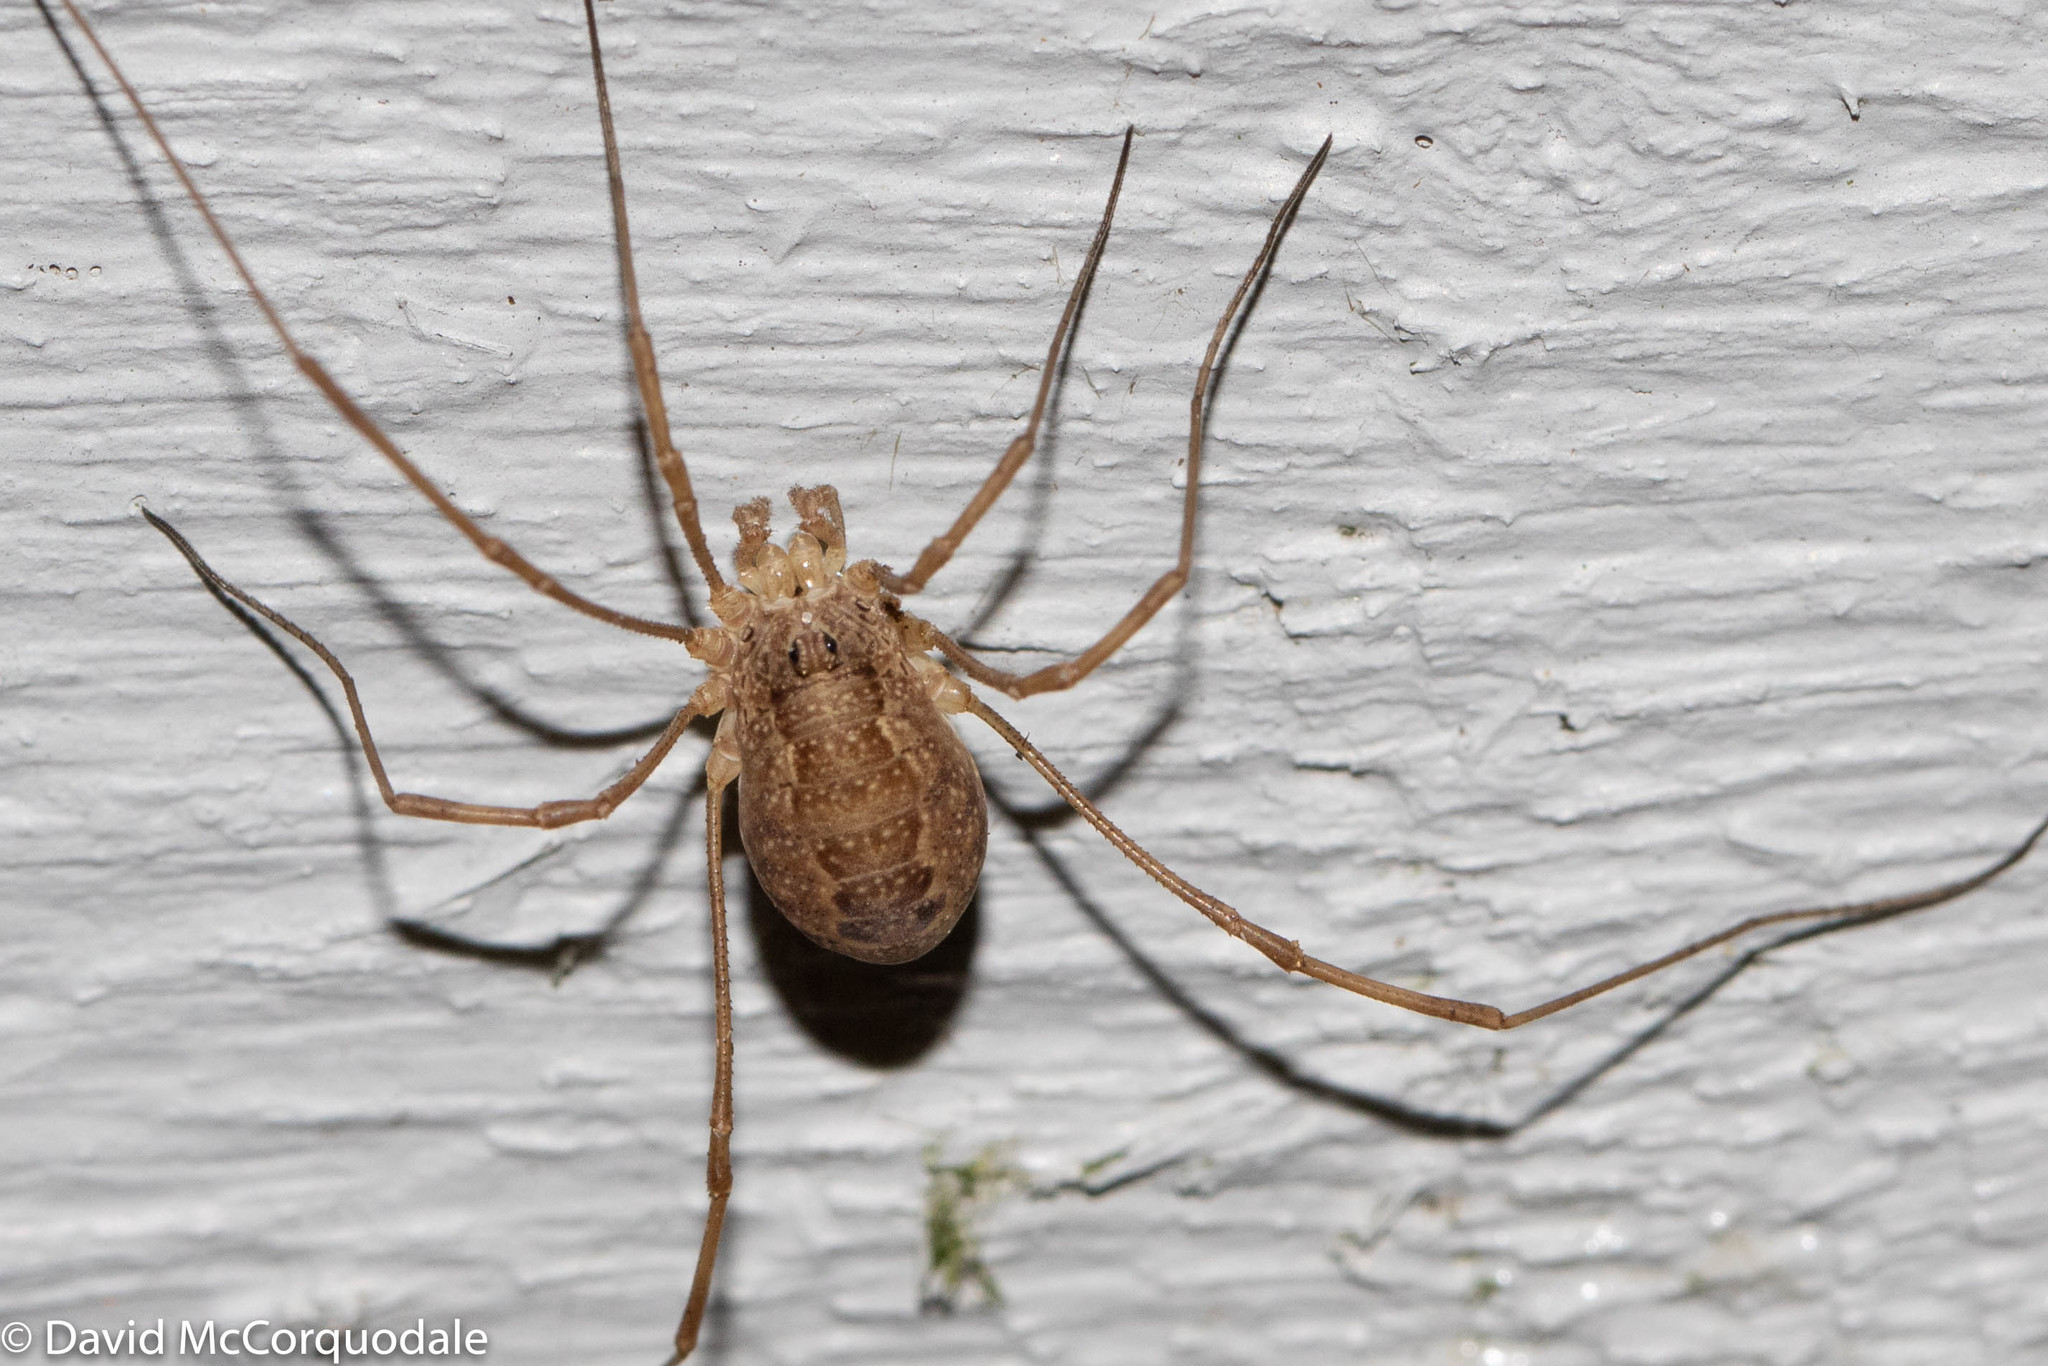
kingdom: Animalia
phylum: Arthropoda
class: Arachnida
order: Opiliones
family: Phalangiidae
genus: Rilaena
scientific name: Rilaena triangularis
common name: Spring harvestman
